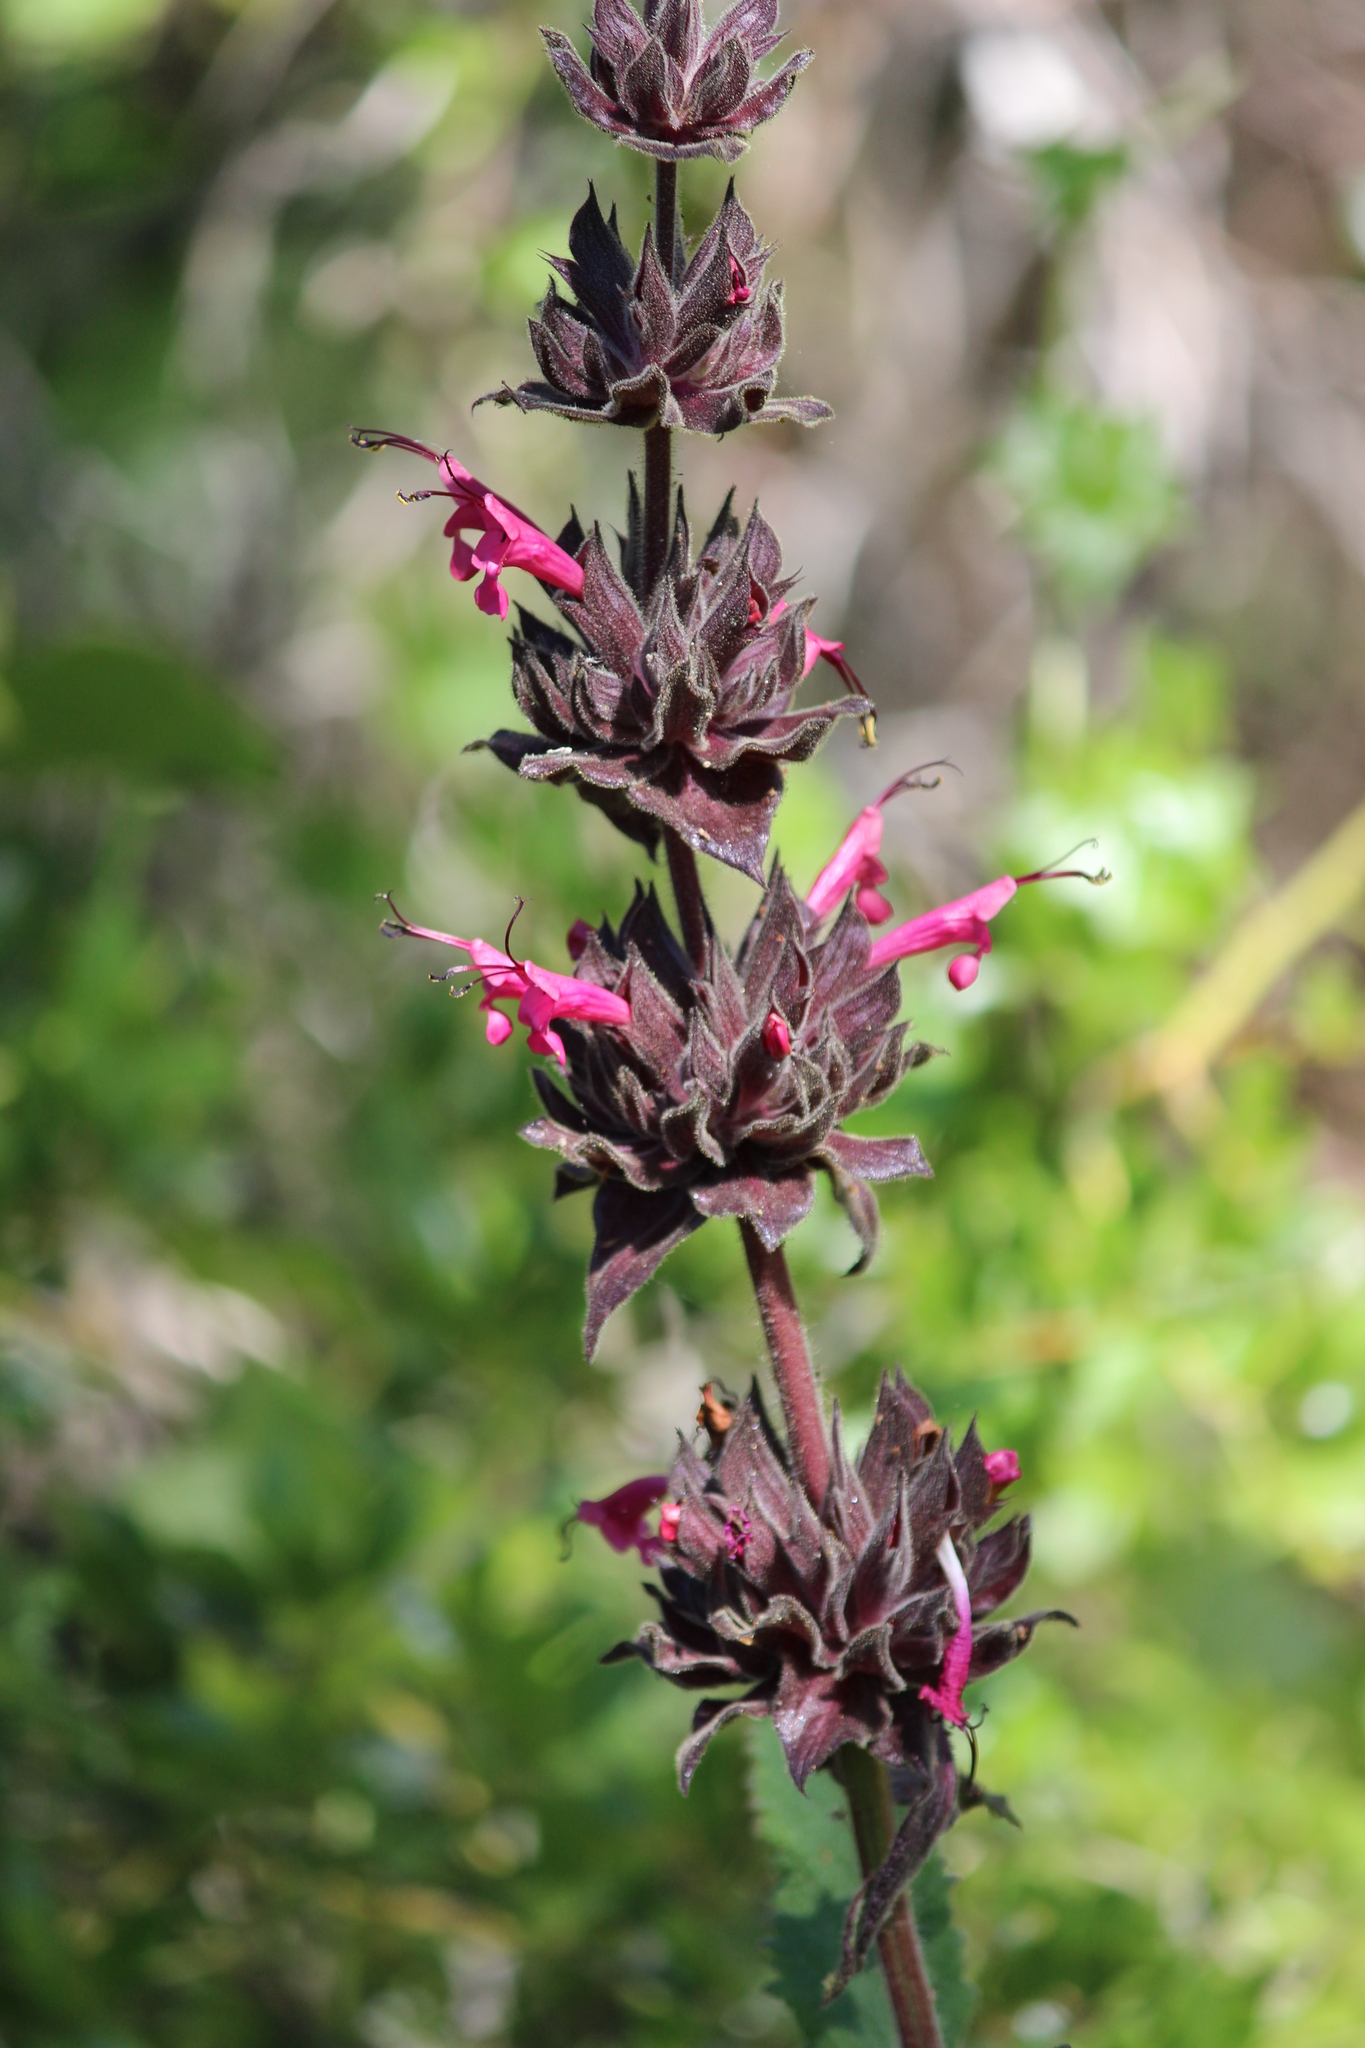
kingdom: Plantae
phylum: Tracheophyta
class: Magnoliopsida
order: Lamiales
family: Lamiaceae
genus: Salvia
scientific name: Salvia spathacea
